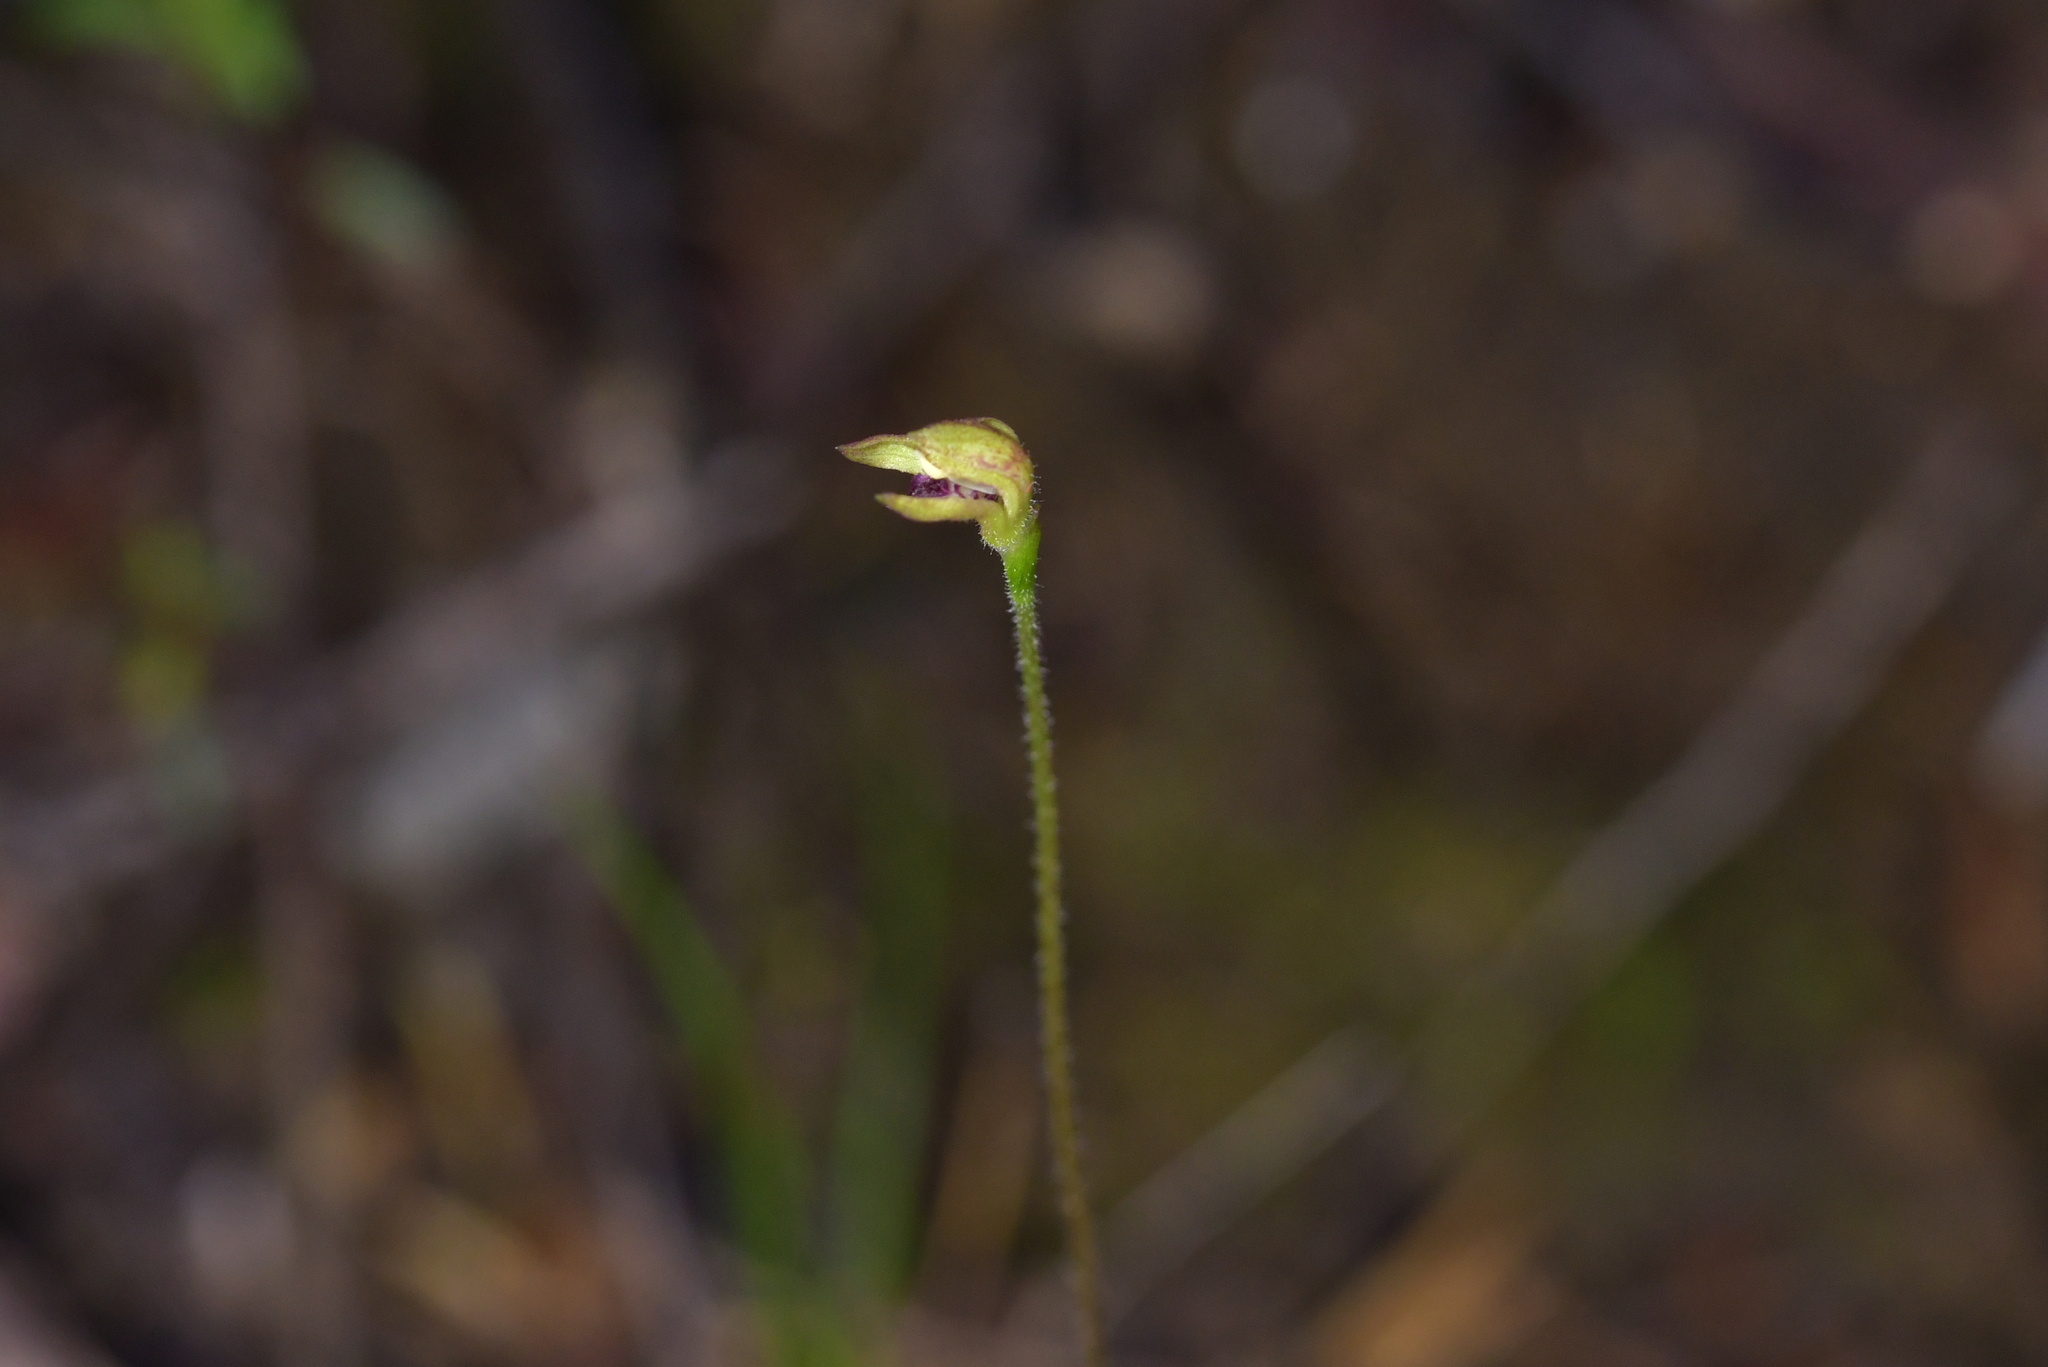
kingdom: Plantae
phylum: Tracheophyta
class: Liliopsida
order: Asparagales
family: Orchidaceae
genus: Caladenia
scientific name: Caladenia atradenia
